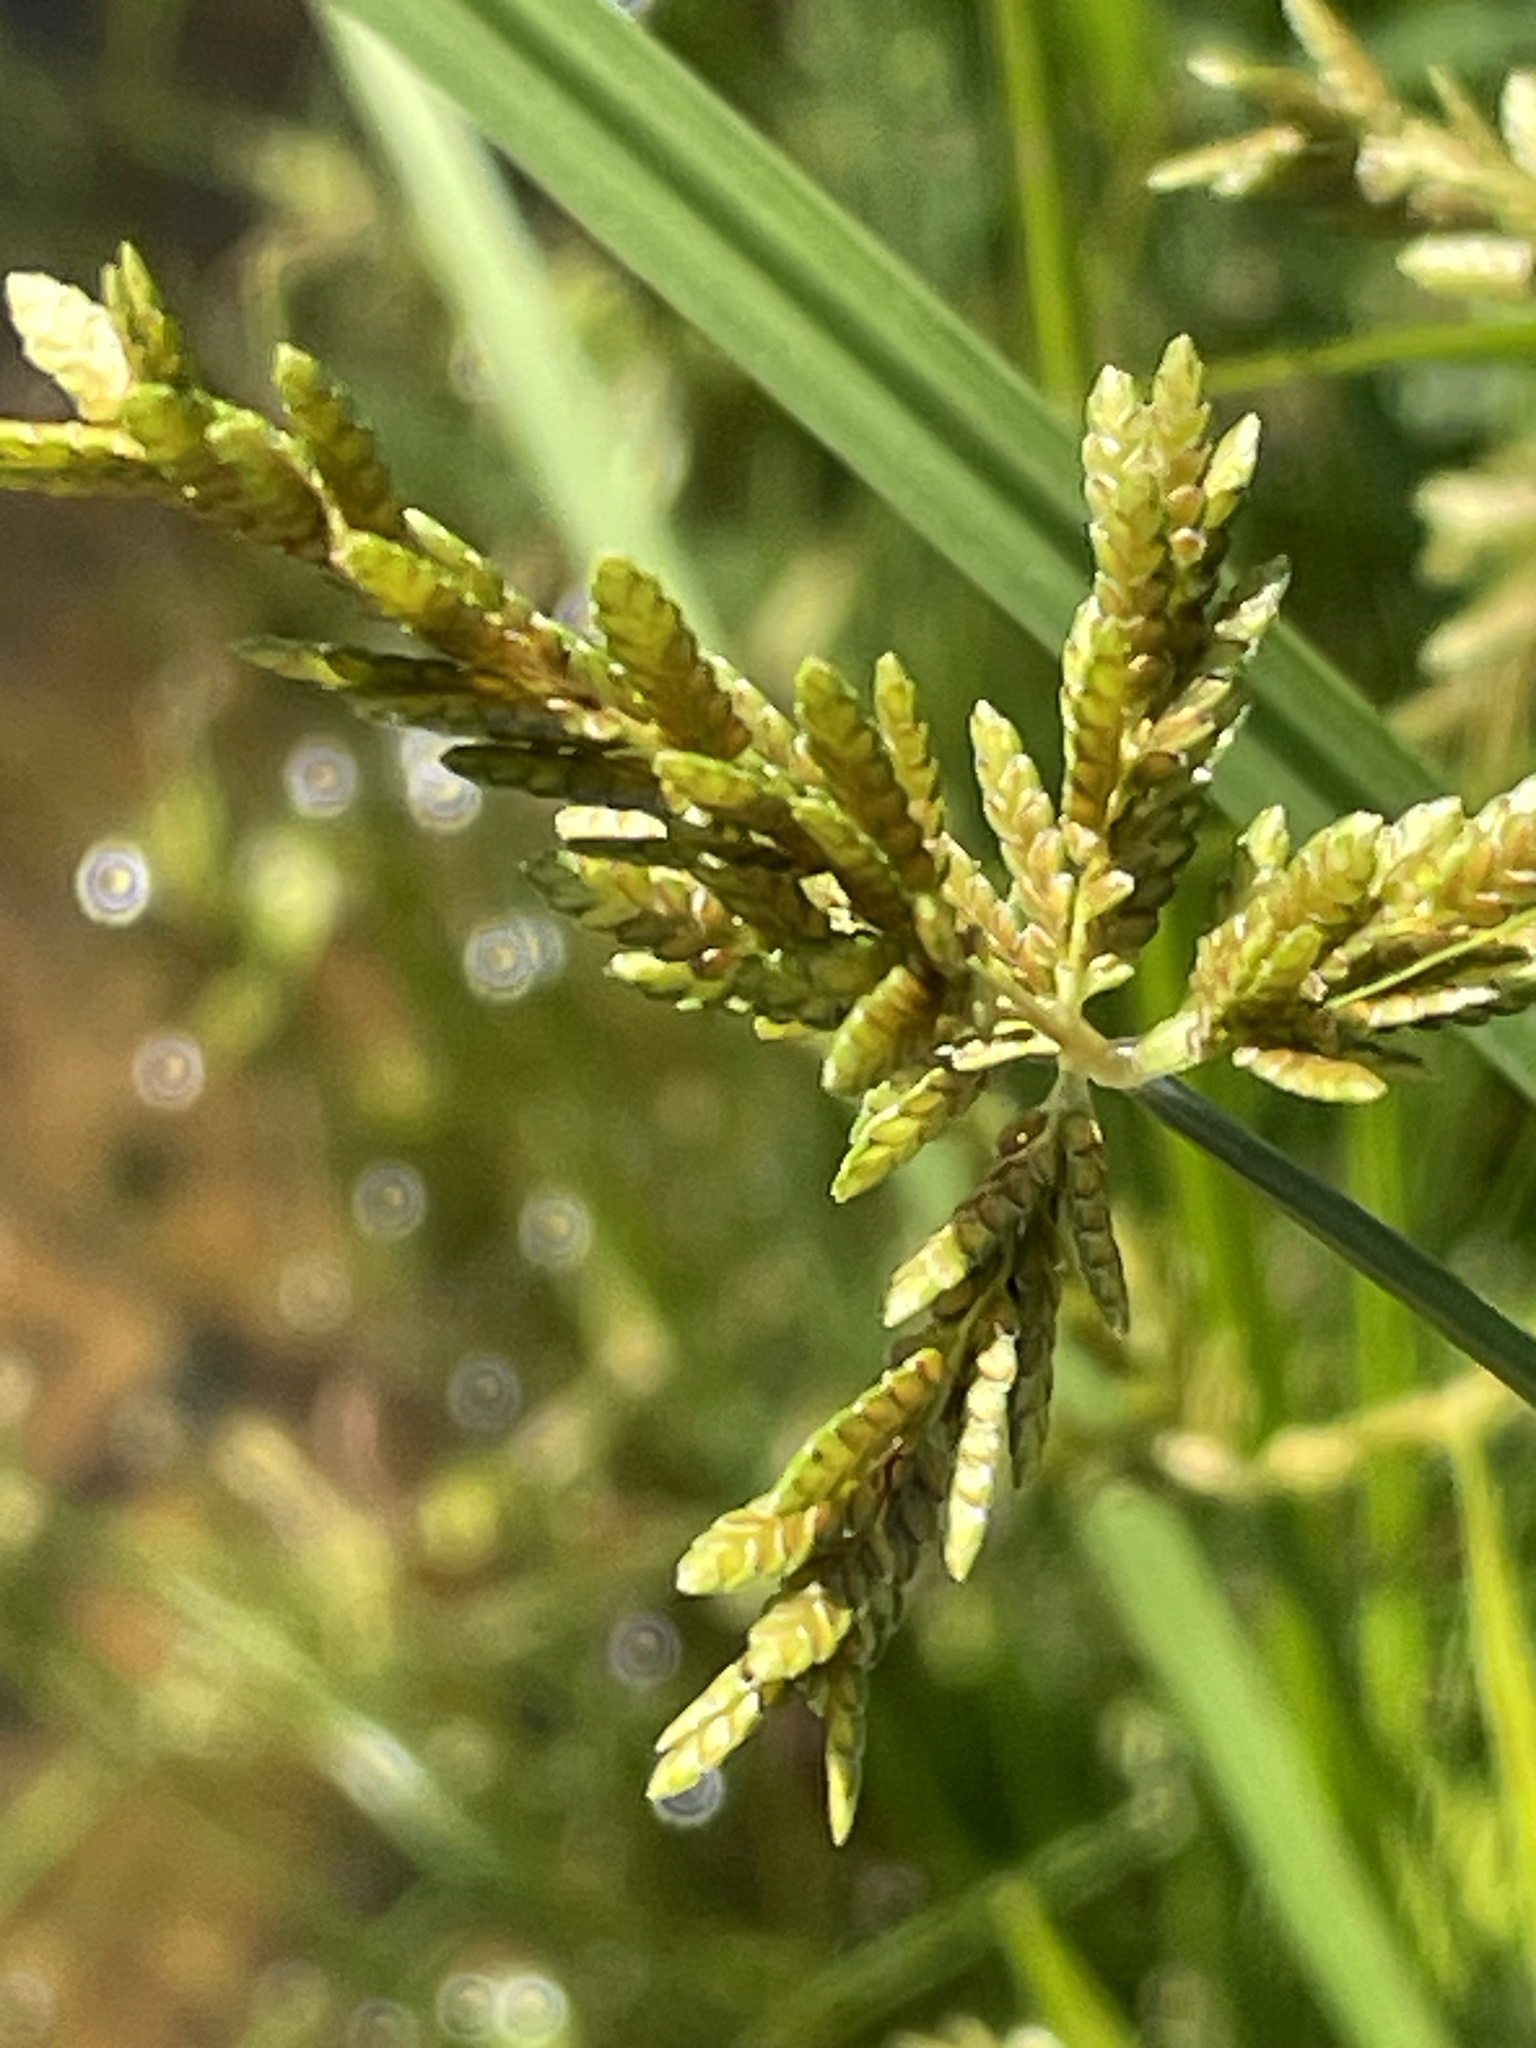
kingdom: Plantae
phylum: Tracheophyta
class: Liliopsida
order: Poales
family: Cyperaceae
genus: Cyperus
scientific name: Cyperus iria
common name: Ricefield flatsedge
